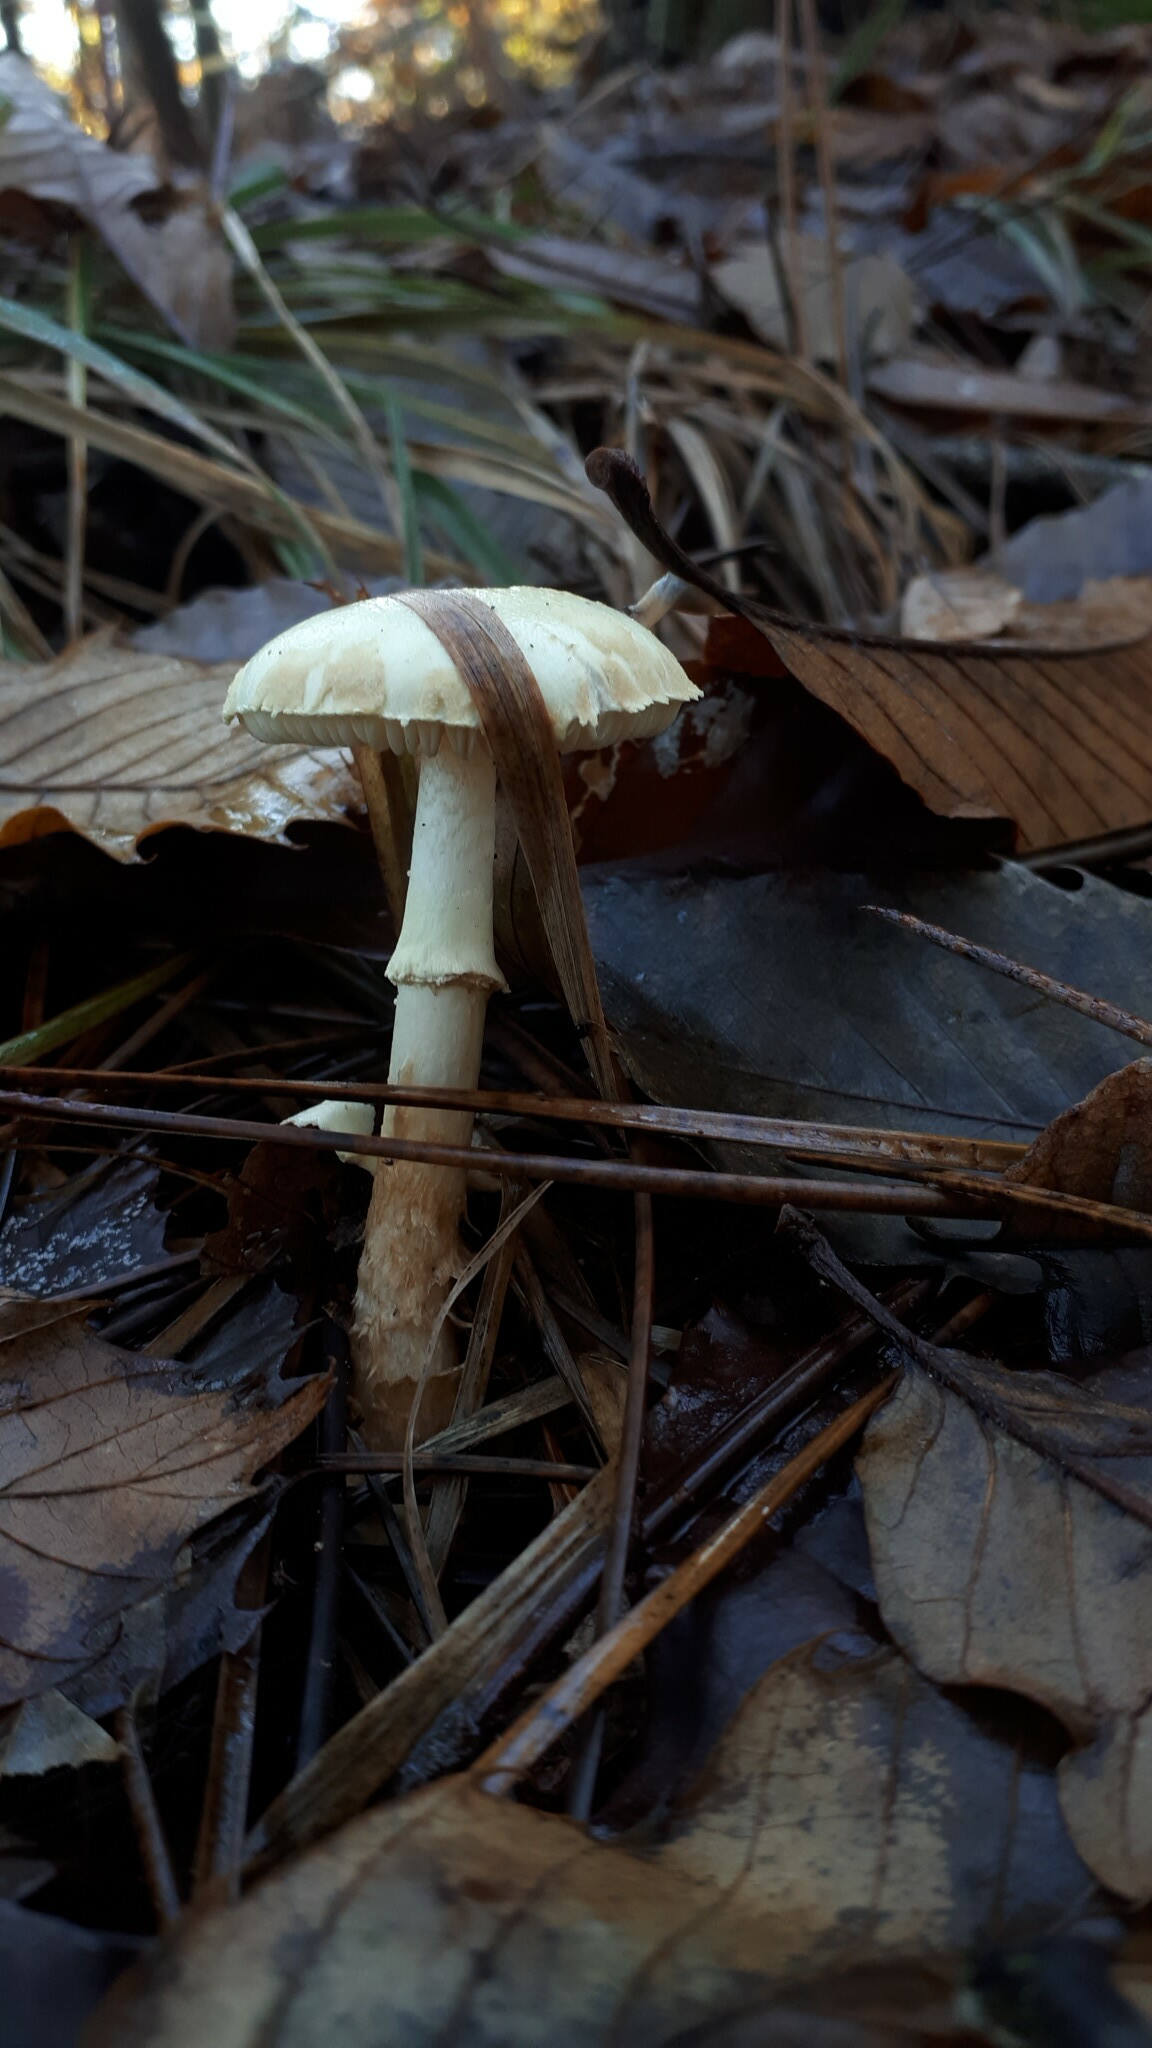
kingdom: Fungi
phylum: Basidiomycota
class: Agaricomycetes
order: Agaricales
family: Amanitaceae
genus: Amanita
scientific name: Amanita citrina
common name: False death-cap
